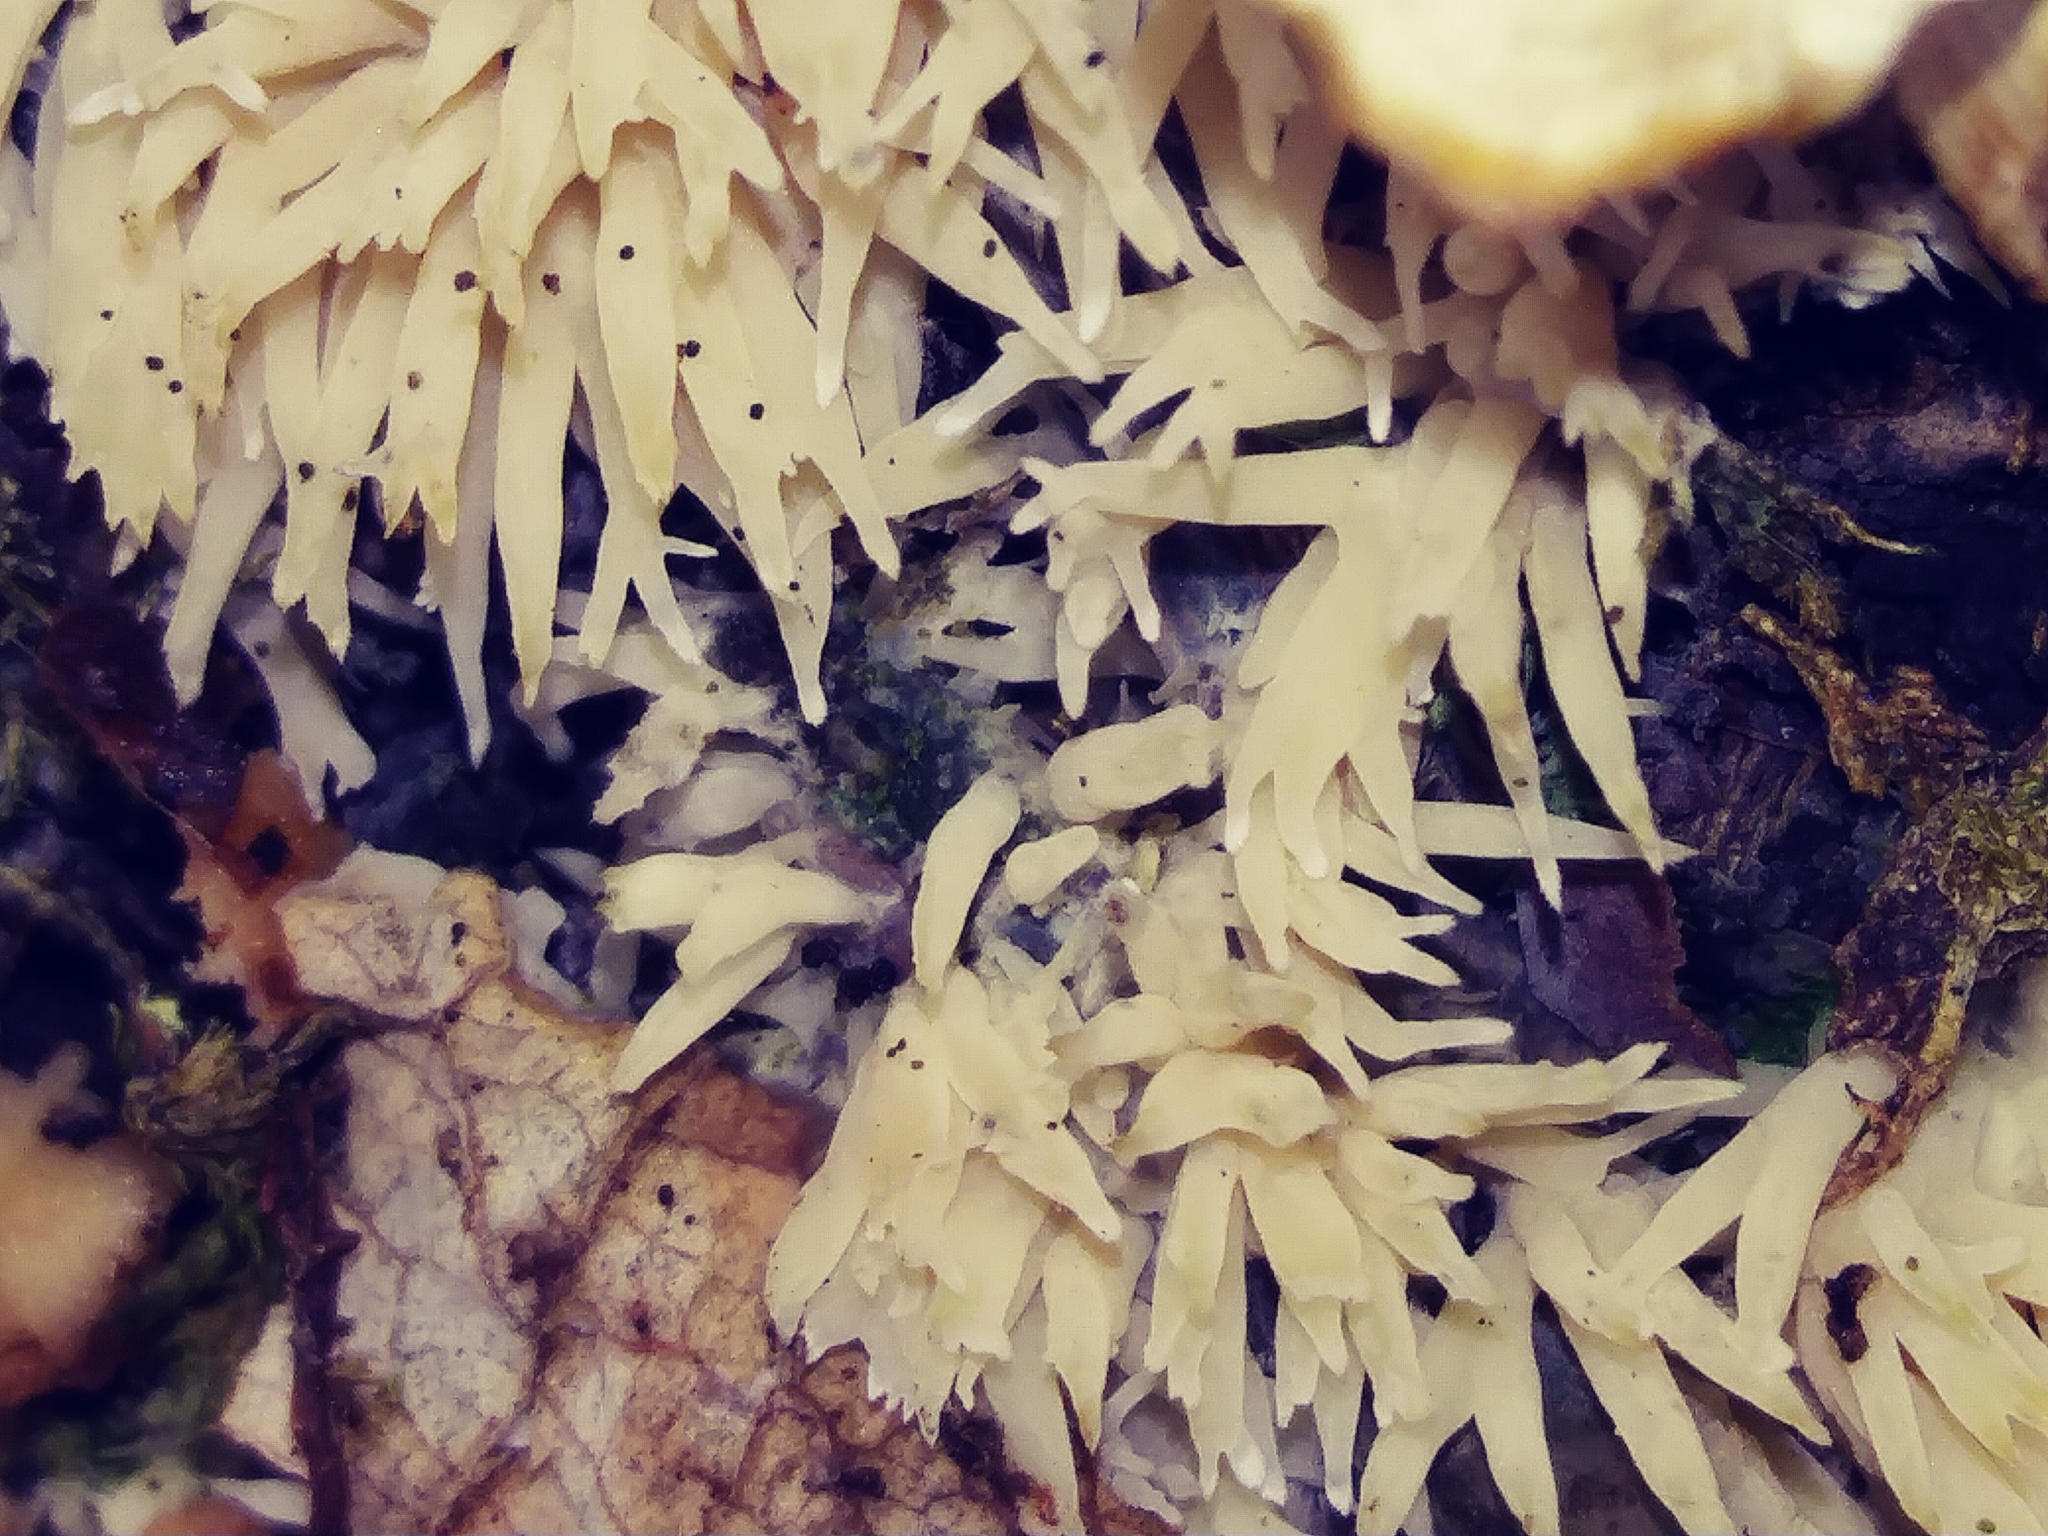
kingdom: Fungi
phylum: Basidiomycota
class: Agaricomycetes
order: Agaricales
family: Radulomycetaceae
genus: Radulomyces
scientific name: Radulomyces copelandii
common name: Asian beauty
